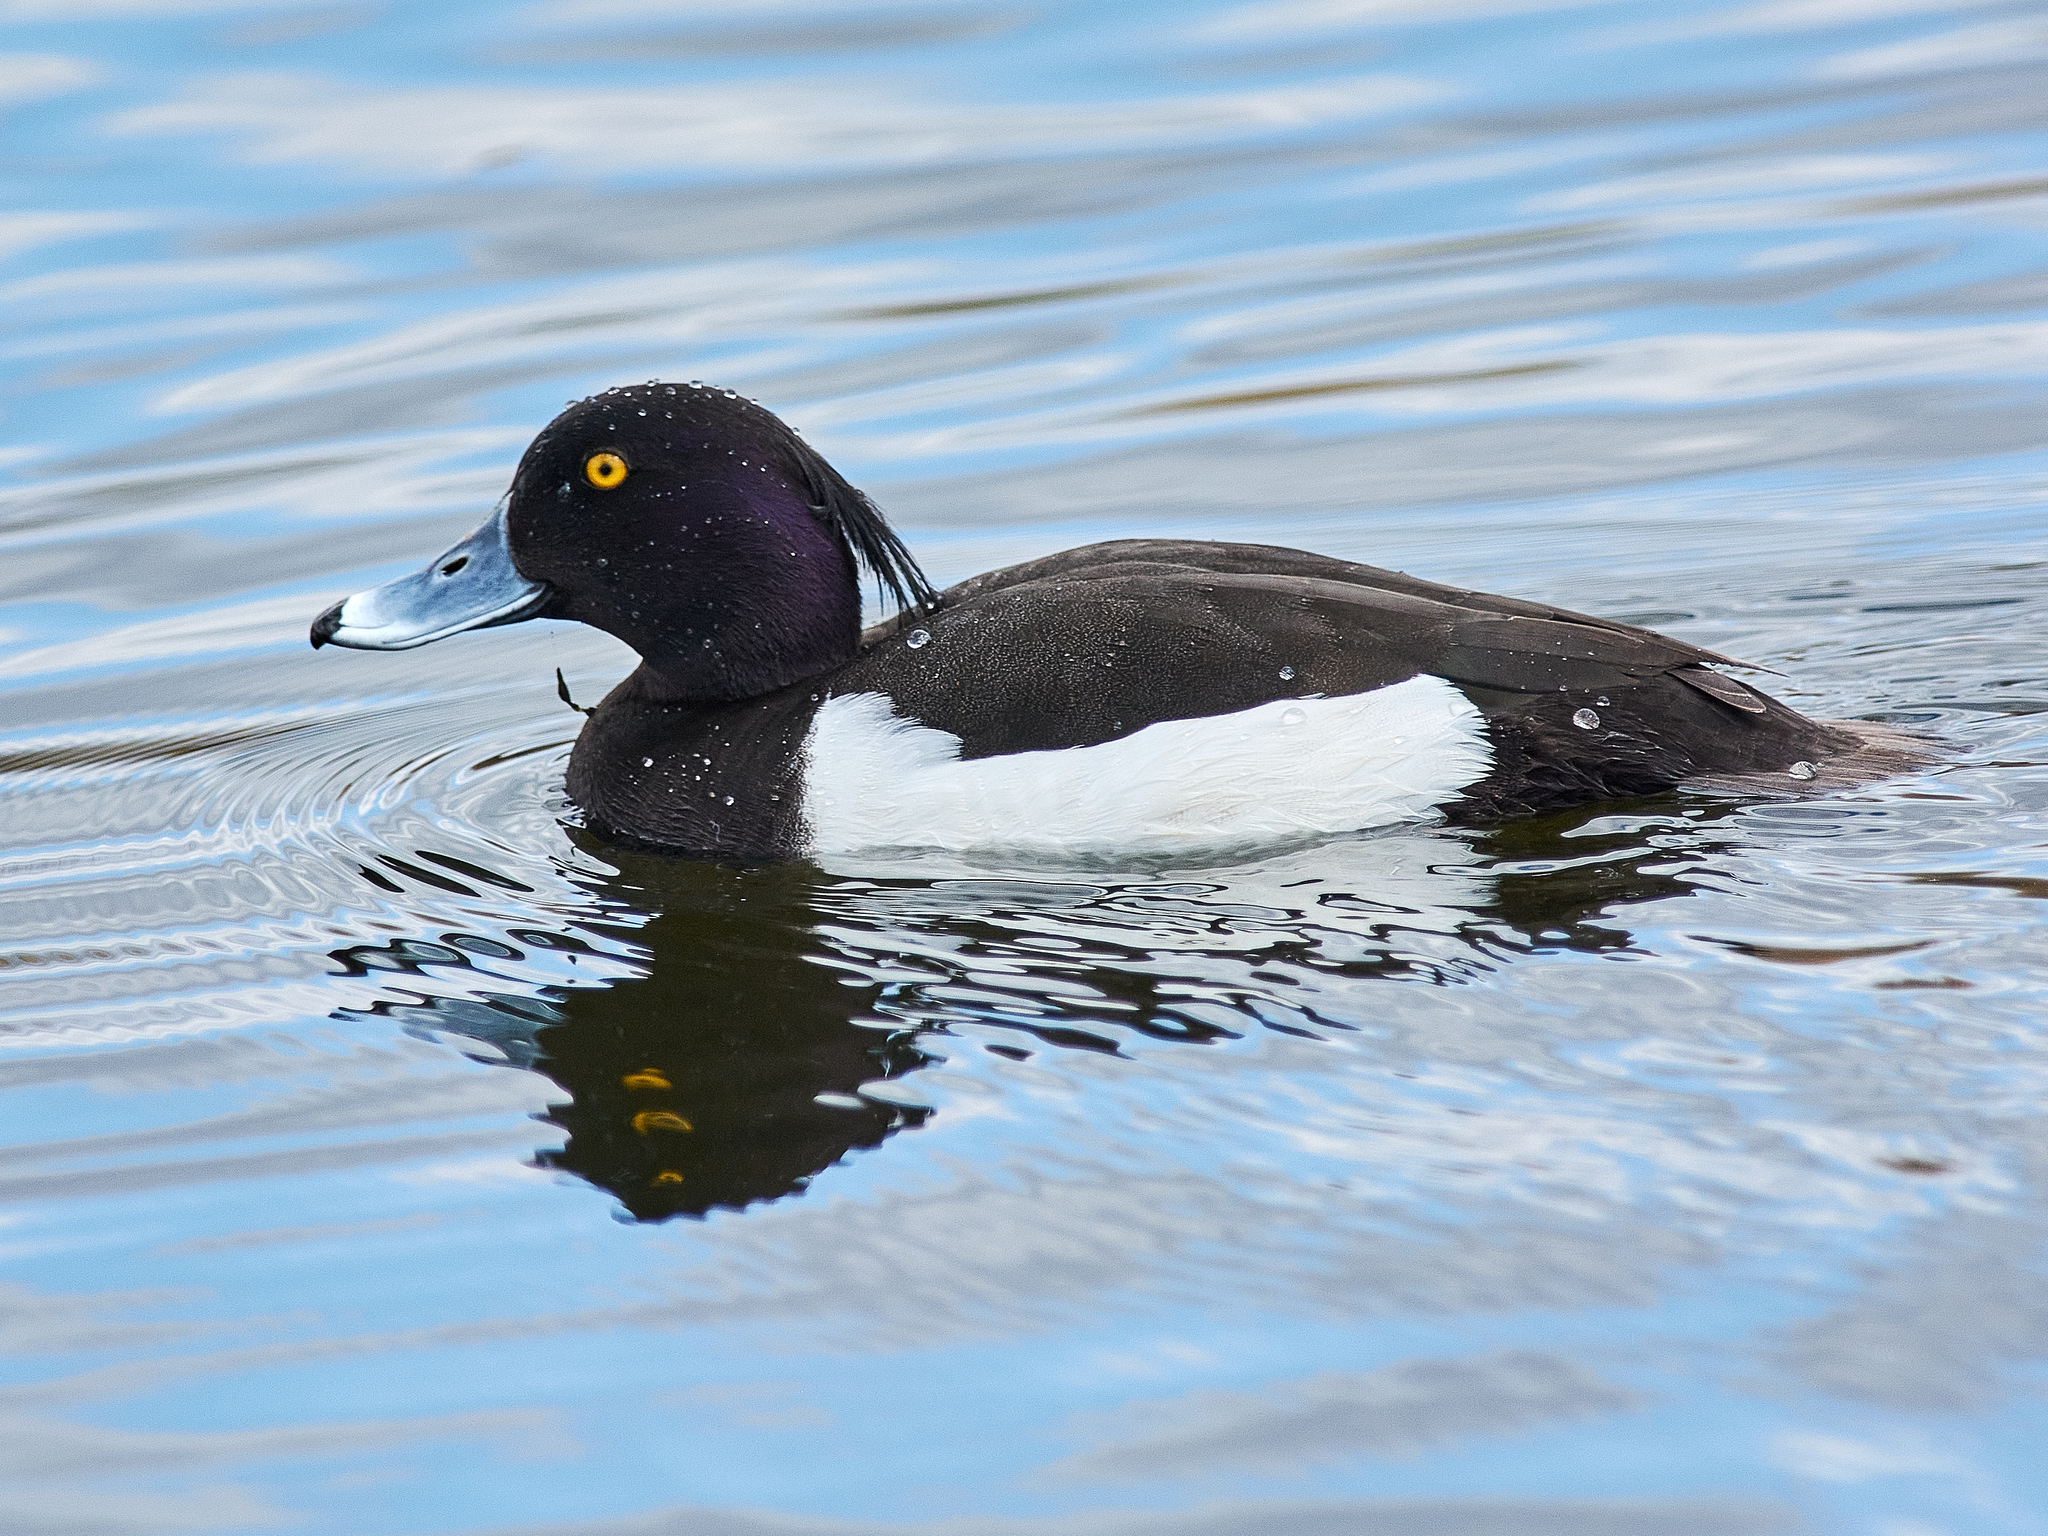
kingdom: Animalia
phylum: Chordata
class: Aves
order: Anseriformes
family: Anatidae
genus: Aythya
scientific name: Aythya fuligula
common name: Tufted duck
